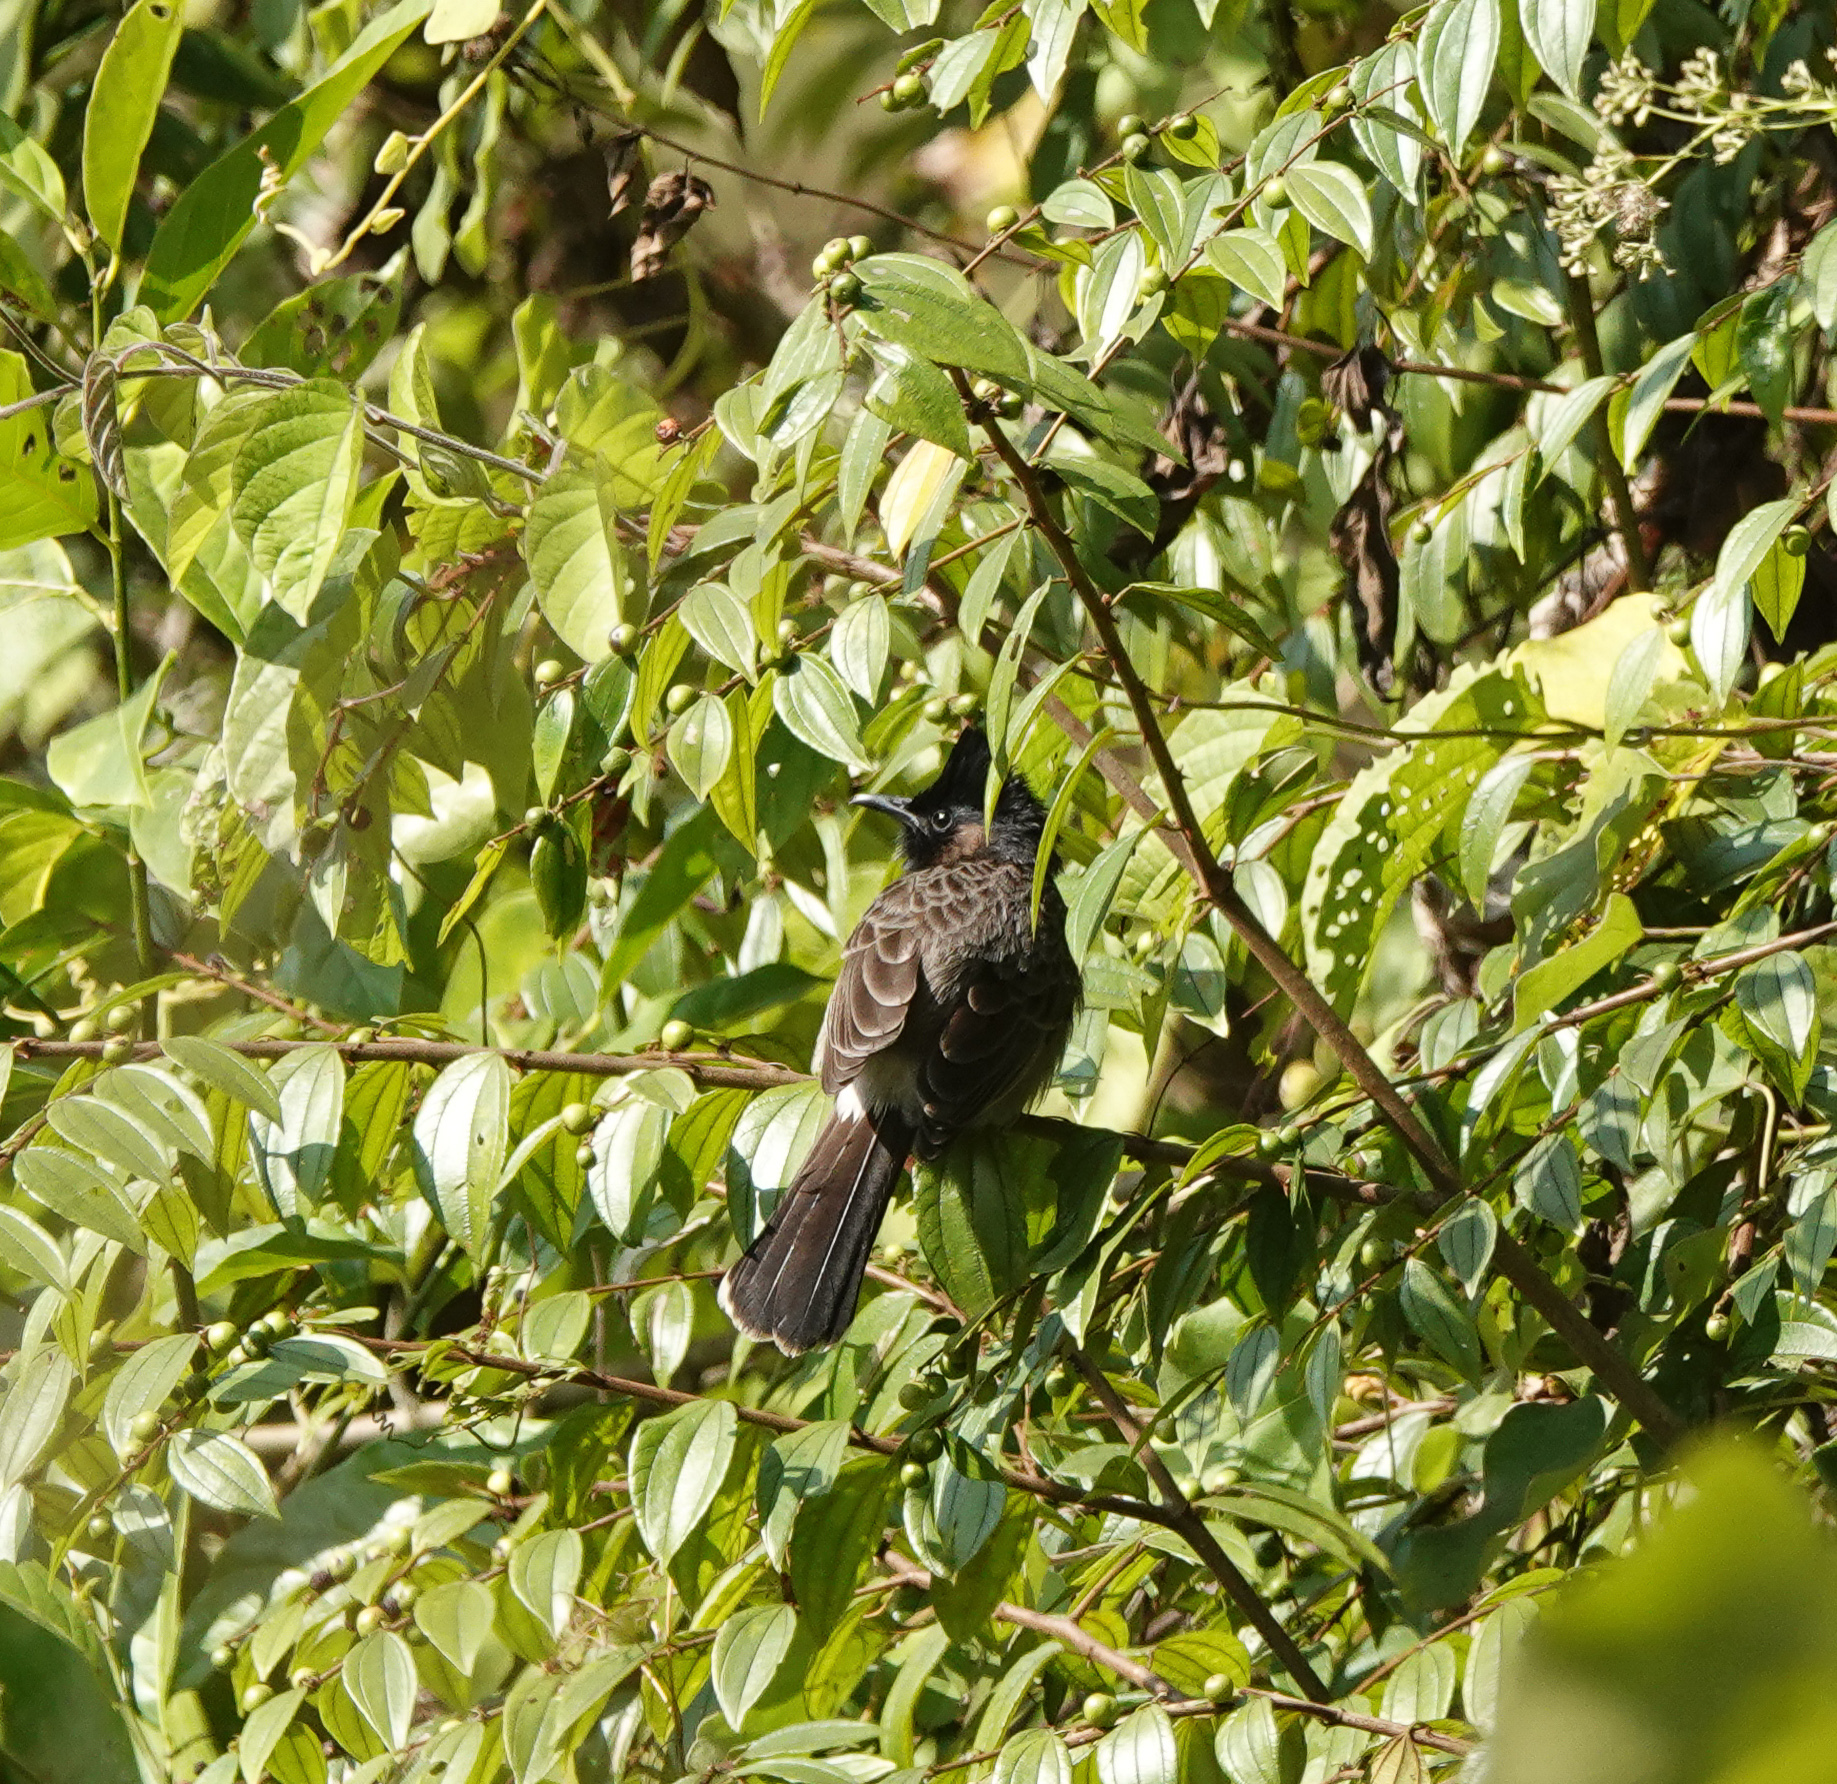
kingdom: Animalia
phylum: Chordata
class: Aves
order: Passeriformes
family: Pycnonotidae
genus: Pycnonotus
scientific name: Pycnonotus cafer
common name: Red-vented bulbul
